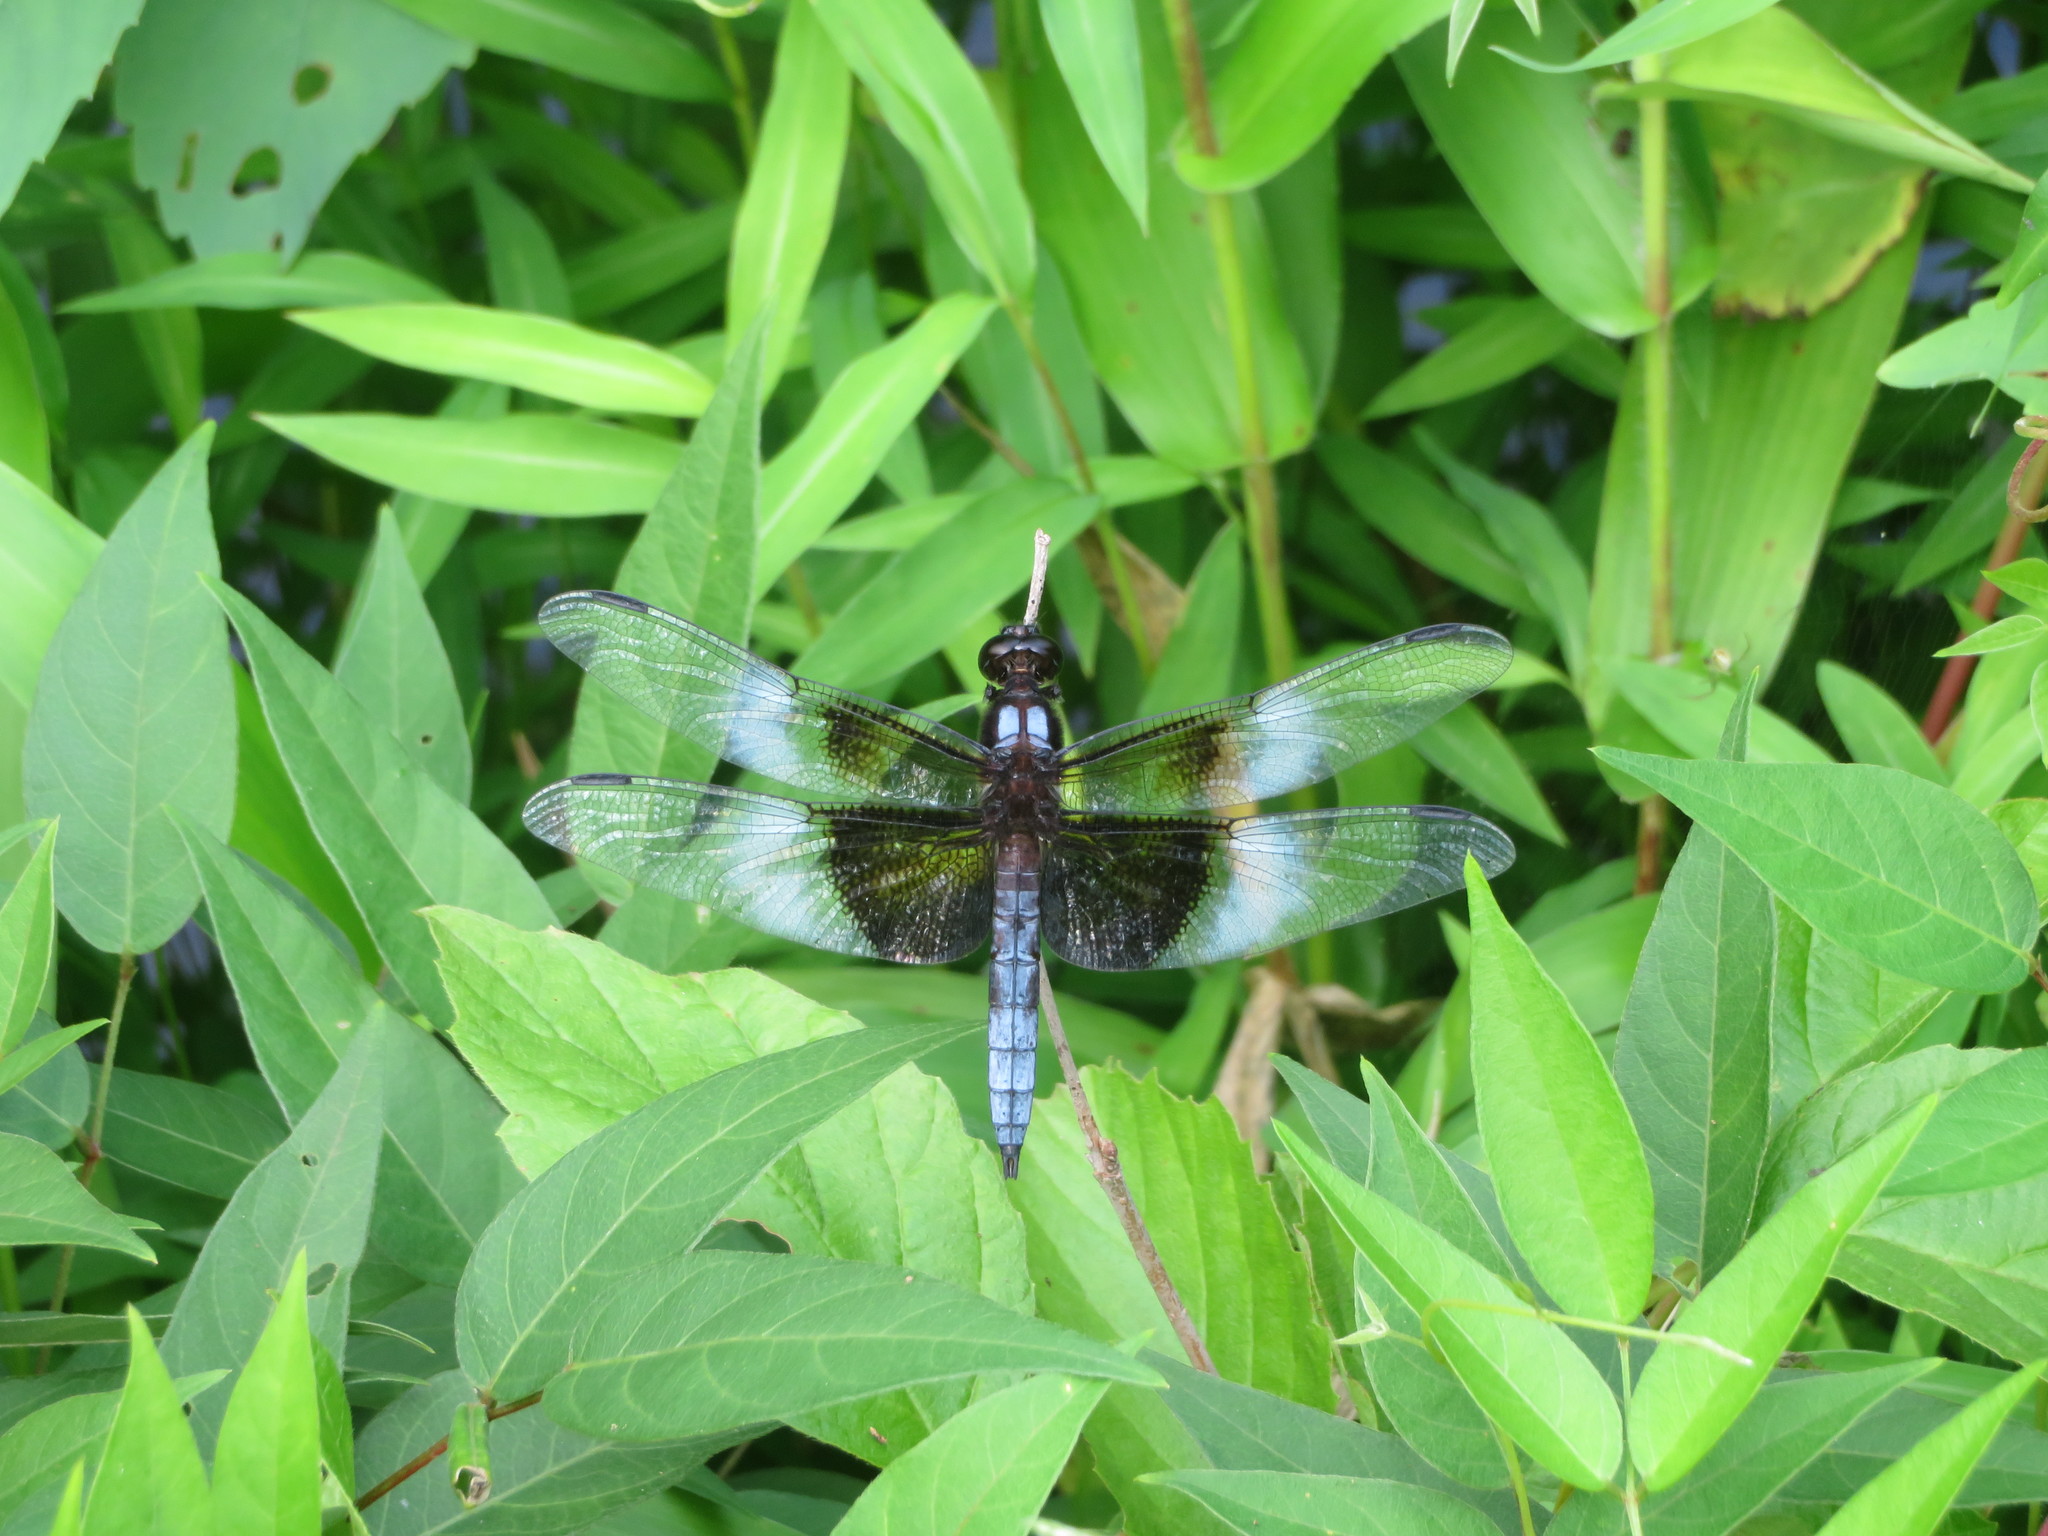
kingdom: Animalia
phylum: Arthropoda
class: Insecta
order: Odonata
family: Libellulidae
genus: Libellula
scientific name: Libellula luctuosa
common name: Widow skimmer
